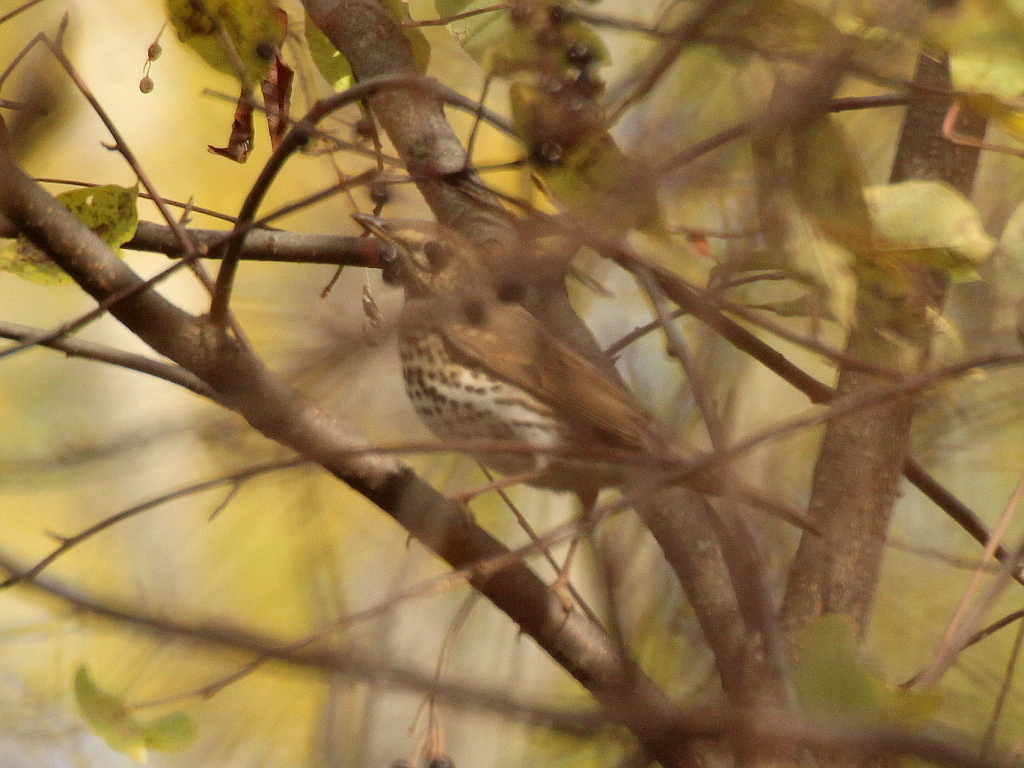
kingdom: Animalia
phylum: Chordata
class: Aves
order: Passeriformes
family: Turdidae
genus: Turdus
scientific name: Turdus philomelos
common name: Song thrush
